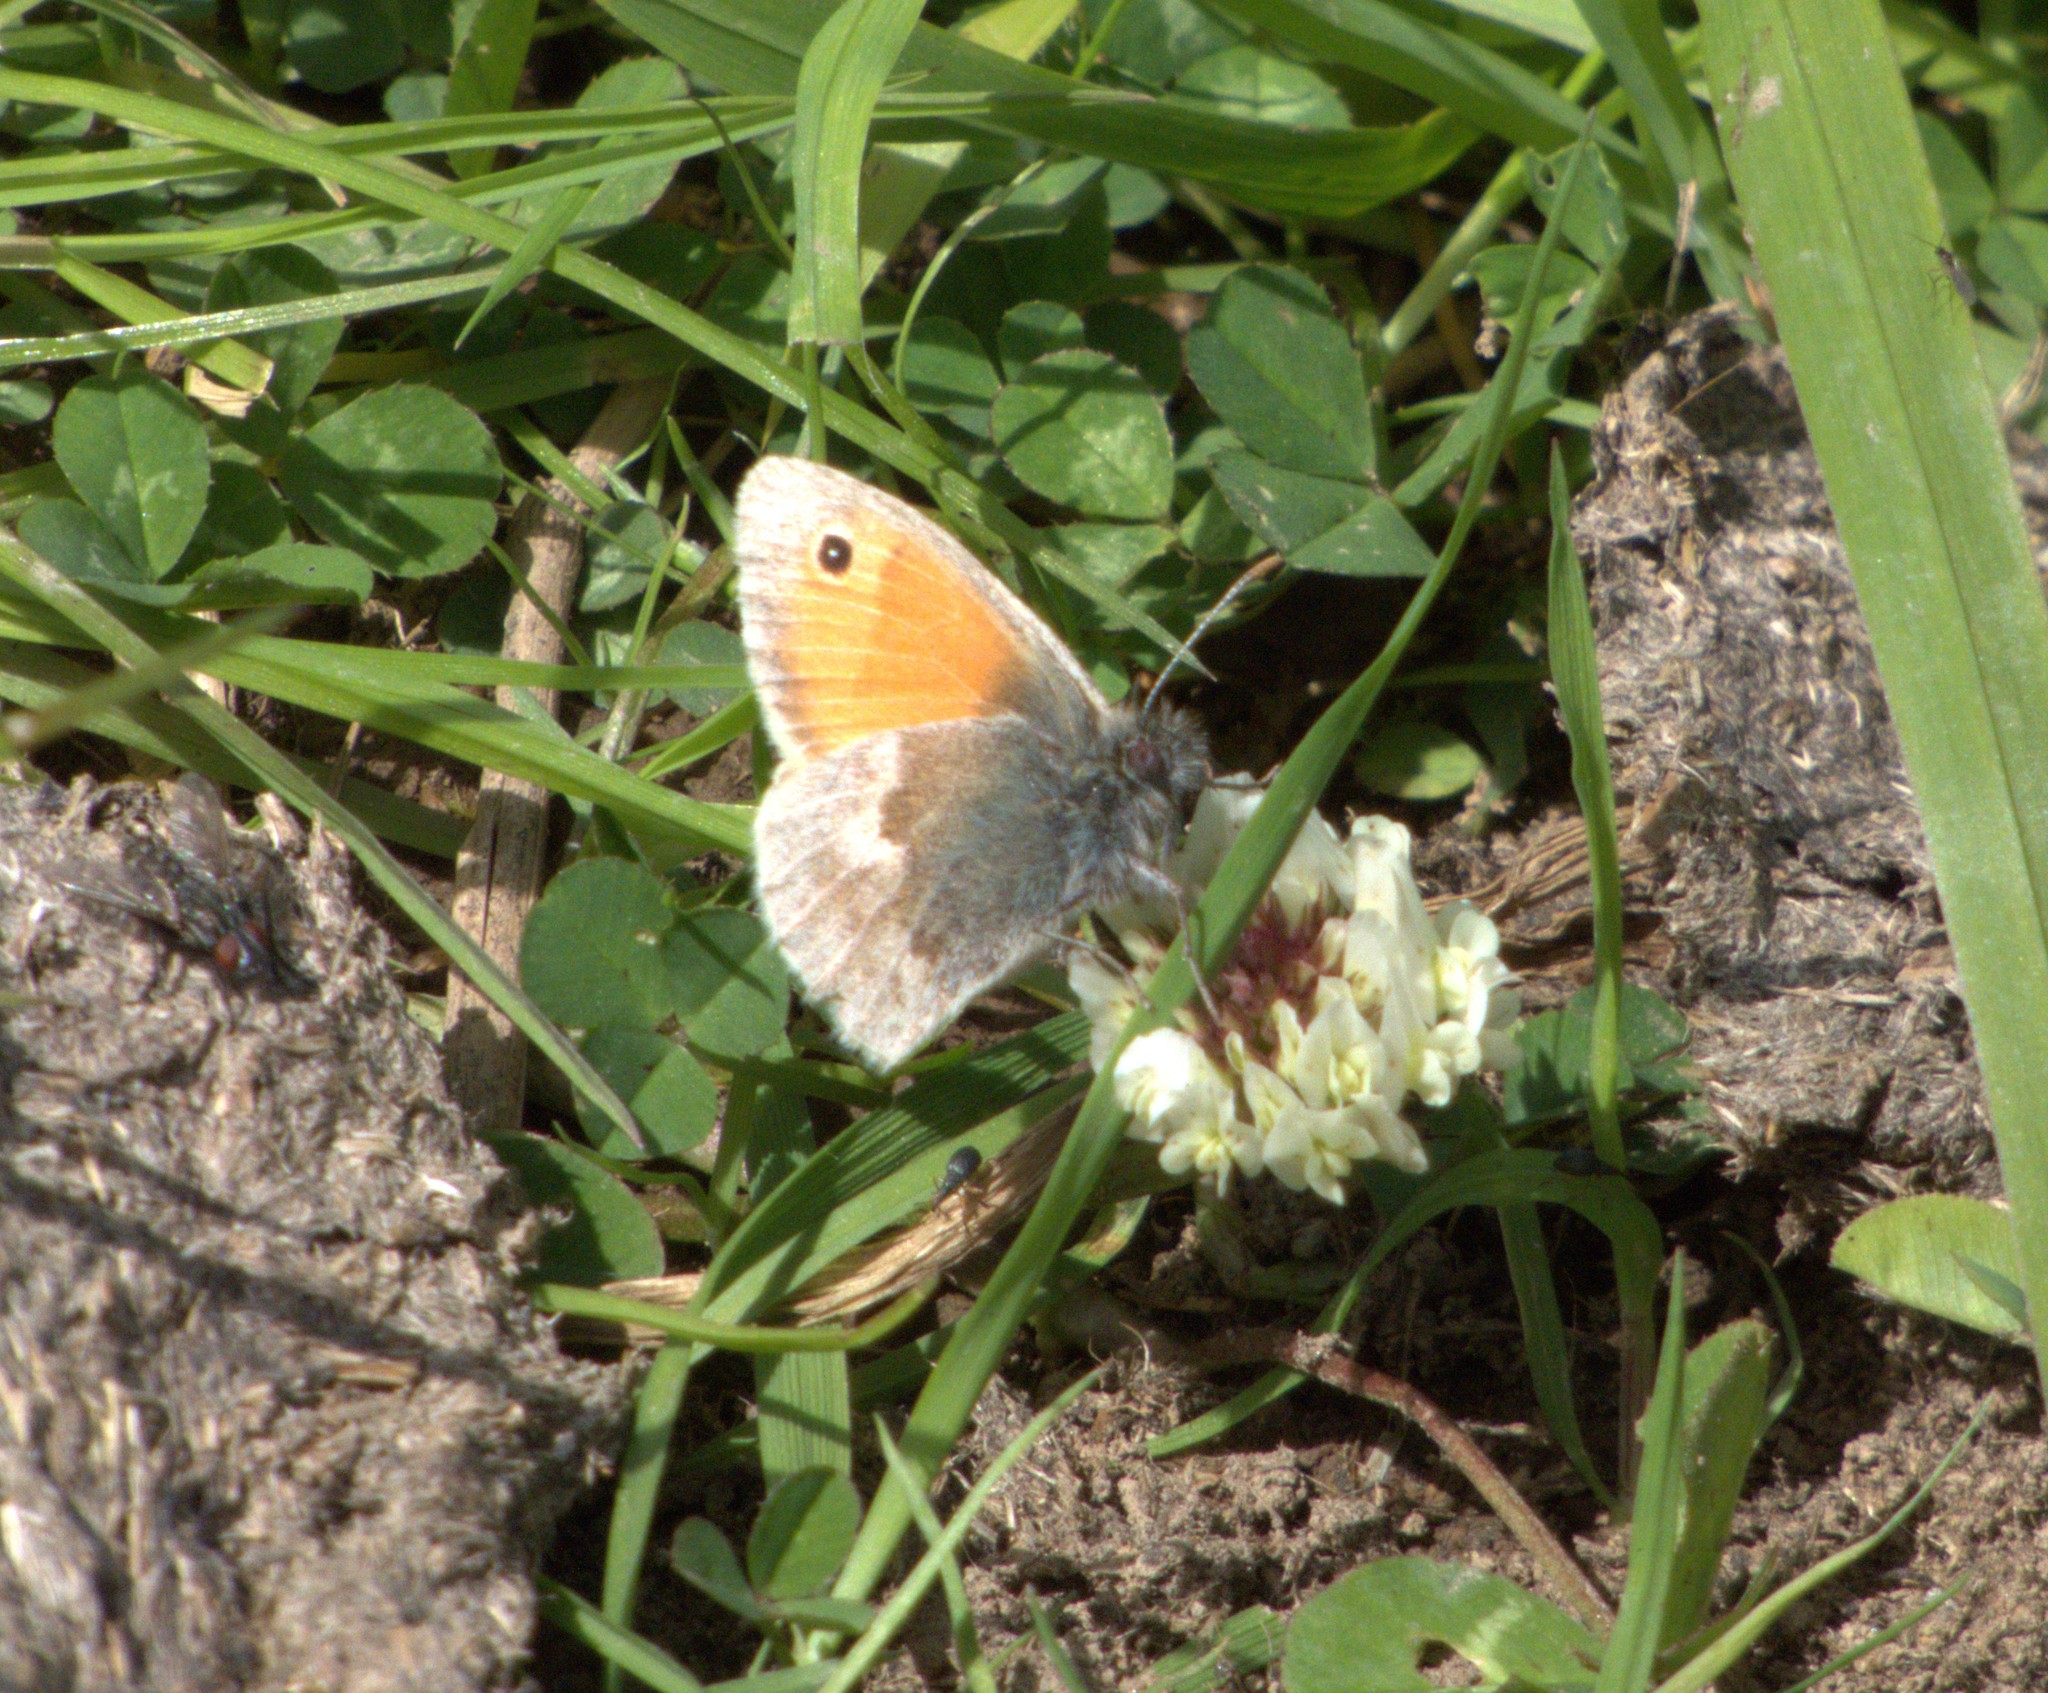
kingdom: Animalia
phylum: Arthropoda
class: Insecta
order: Lepidoptera
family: Nymphalidae
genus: Coenonympha
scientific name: Coenonympha pamphilus
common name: Small heath
